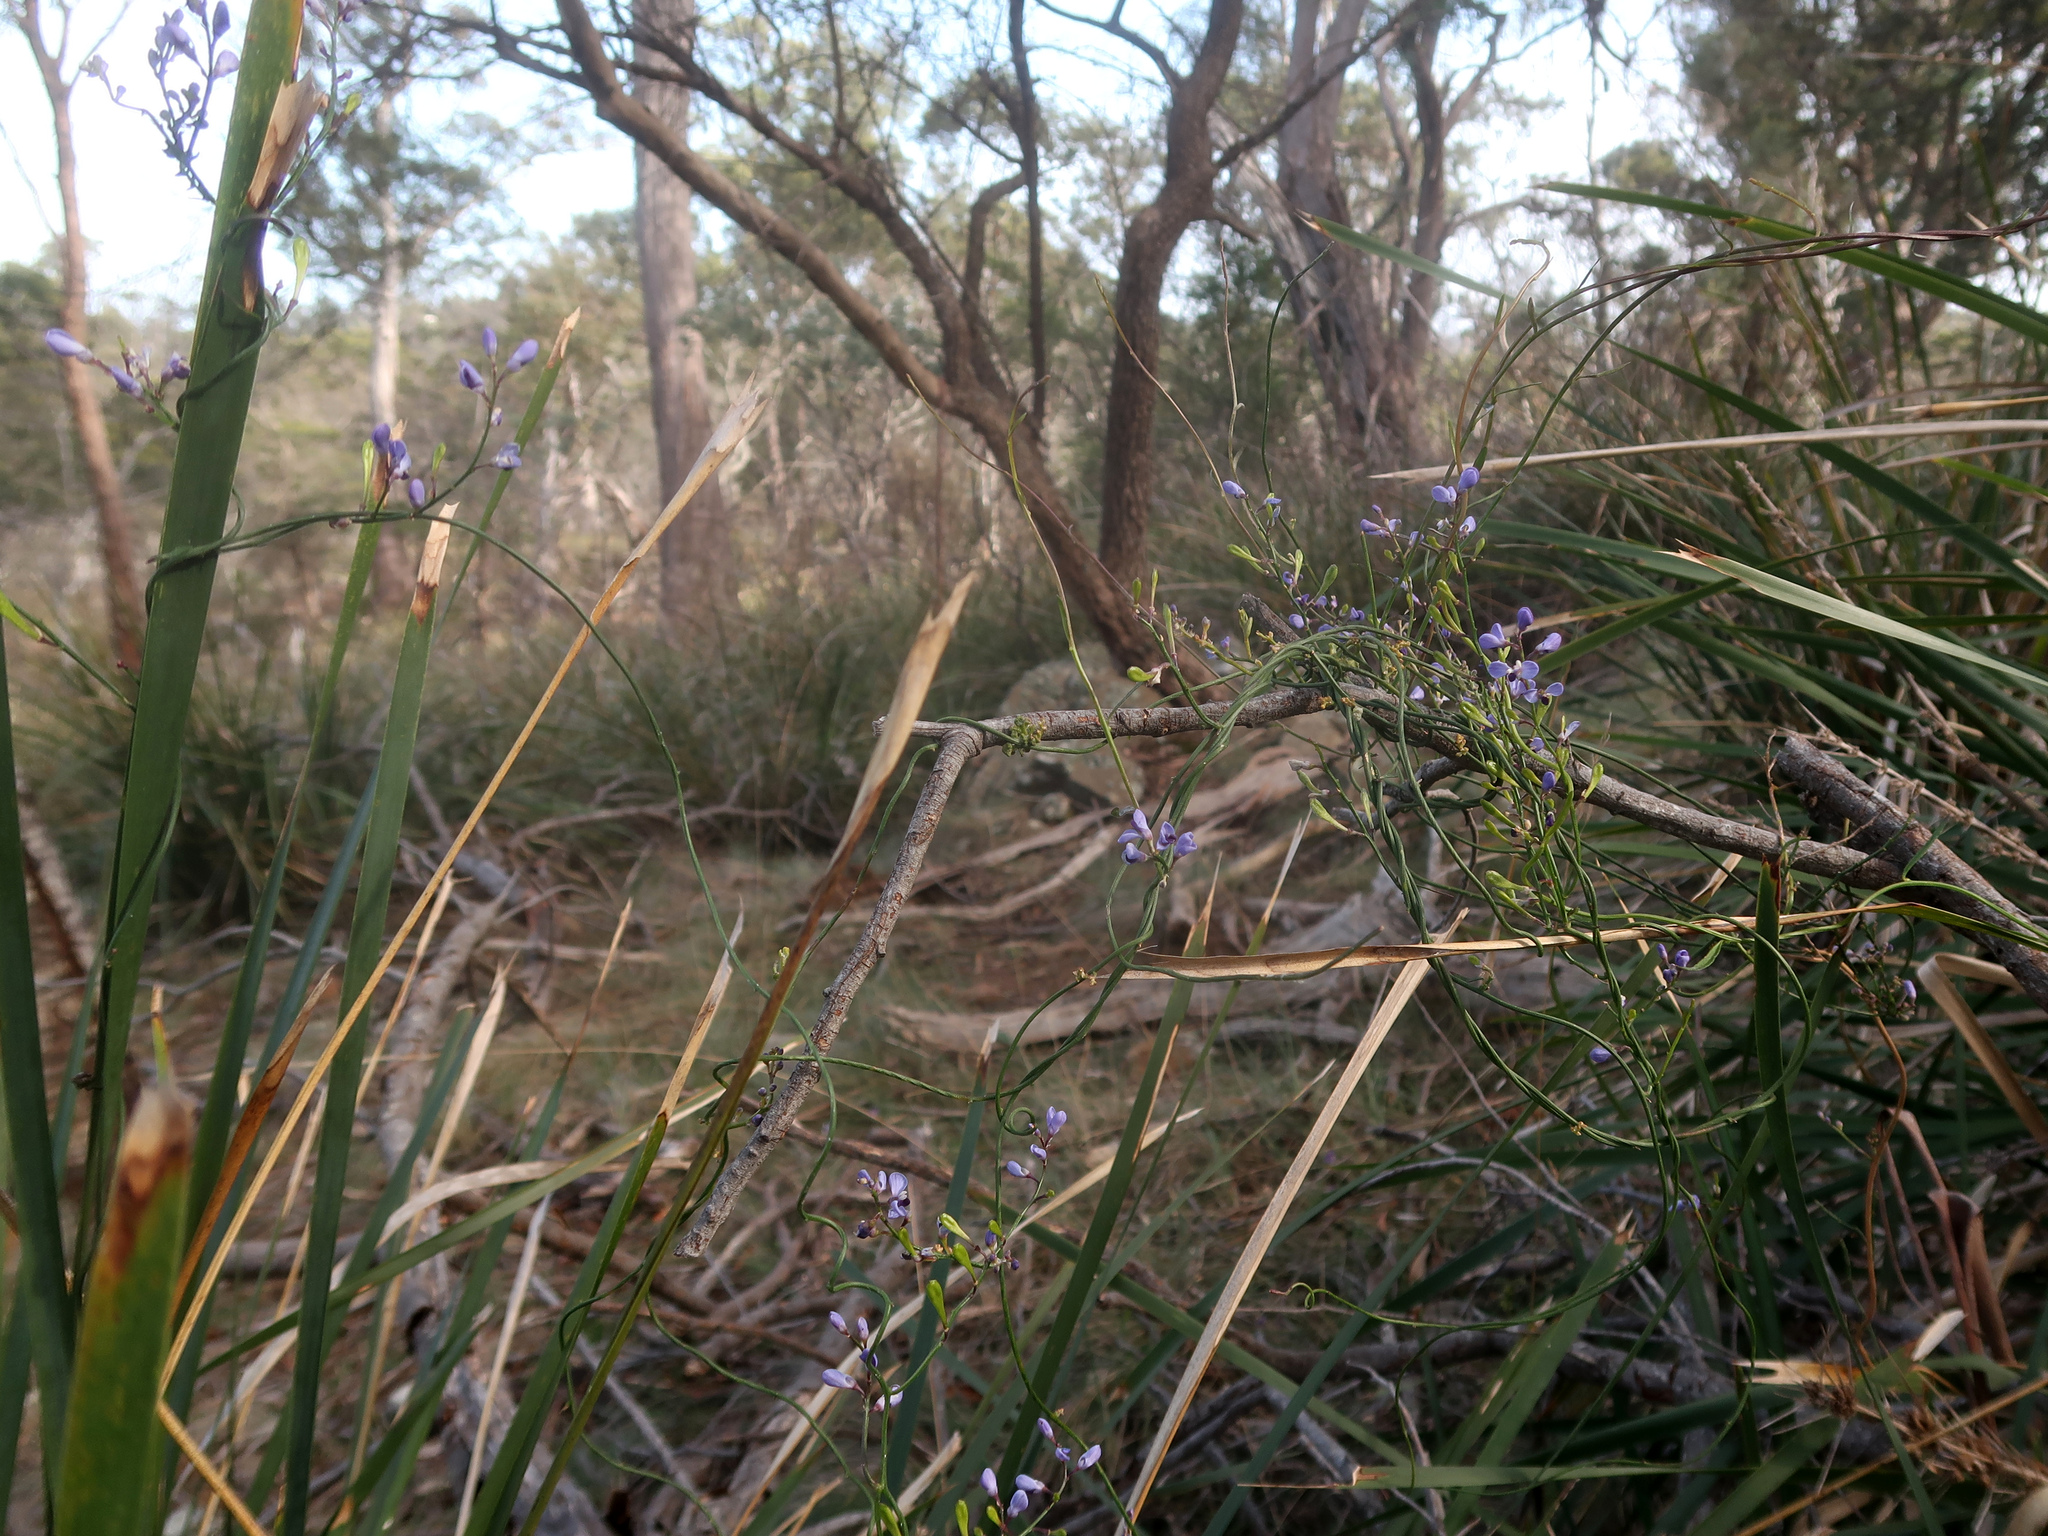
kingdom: Plantae
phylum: Tracheophyta
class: Magnoliopsida
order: Fabales
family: Polygalaceae
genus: Comesperma
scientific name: Comesperma volubile
